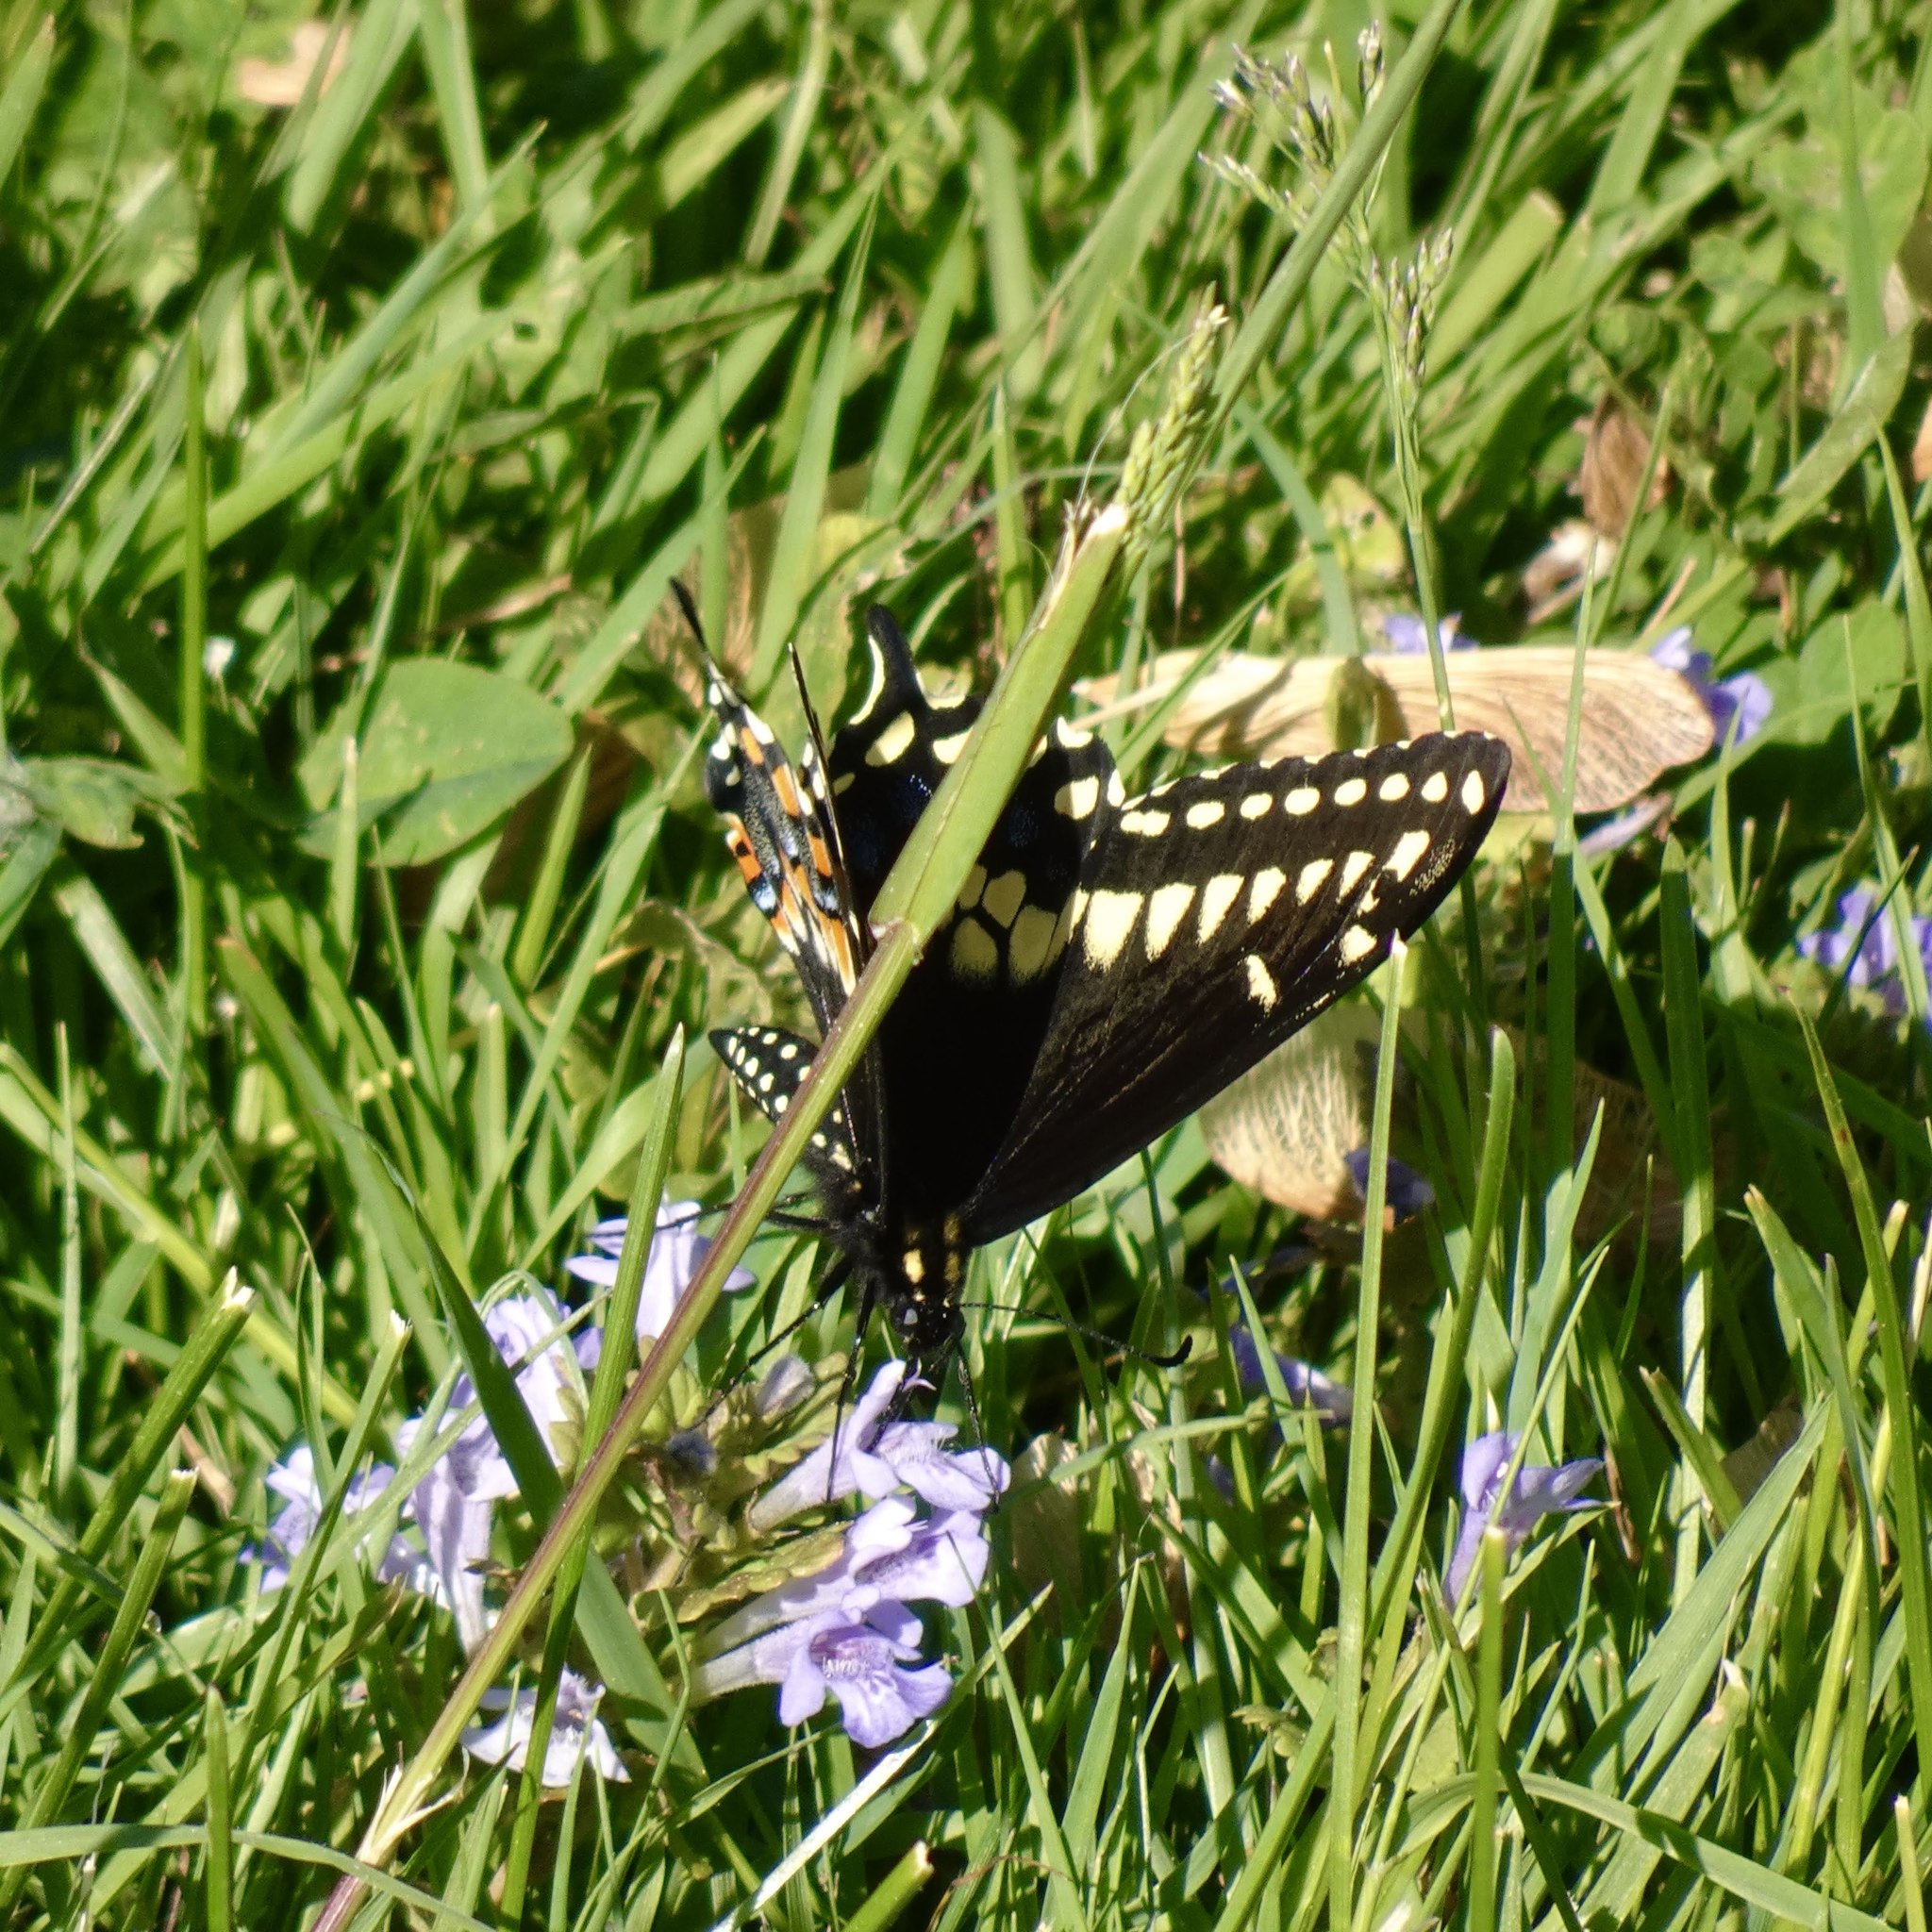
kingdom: Animalia
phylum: Arthropoda
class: Insecta
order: Lepidoptera
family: Papilionidae
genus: Papilio
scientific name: Papilio polyxenes
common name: Black swallowtail
